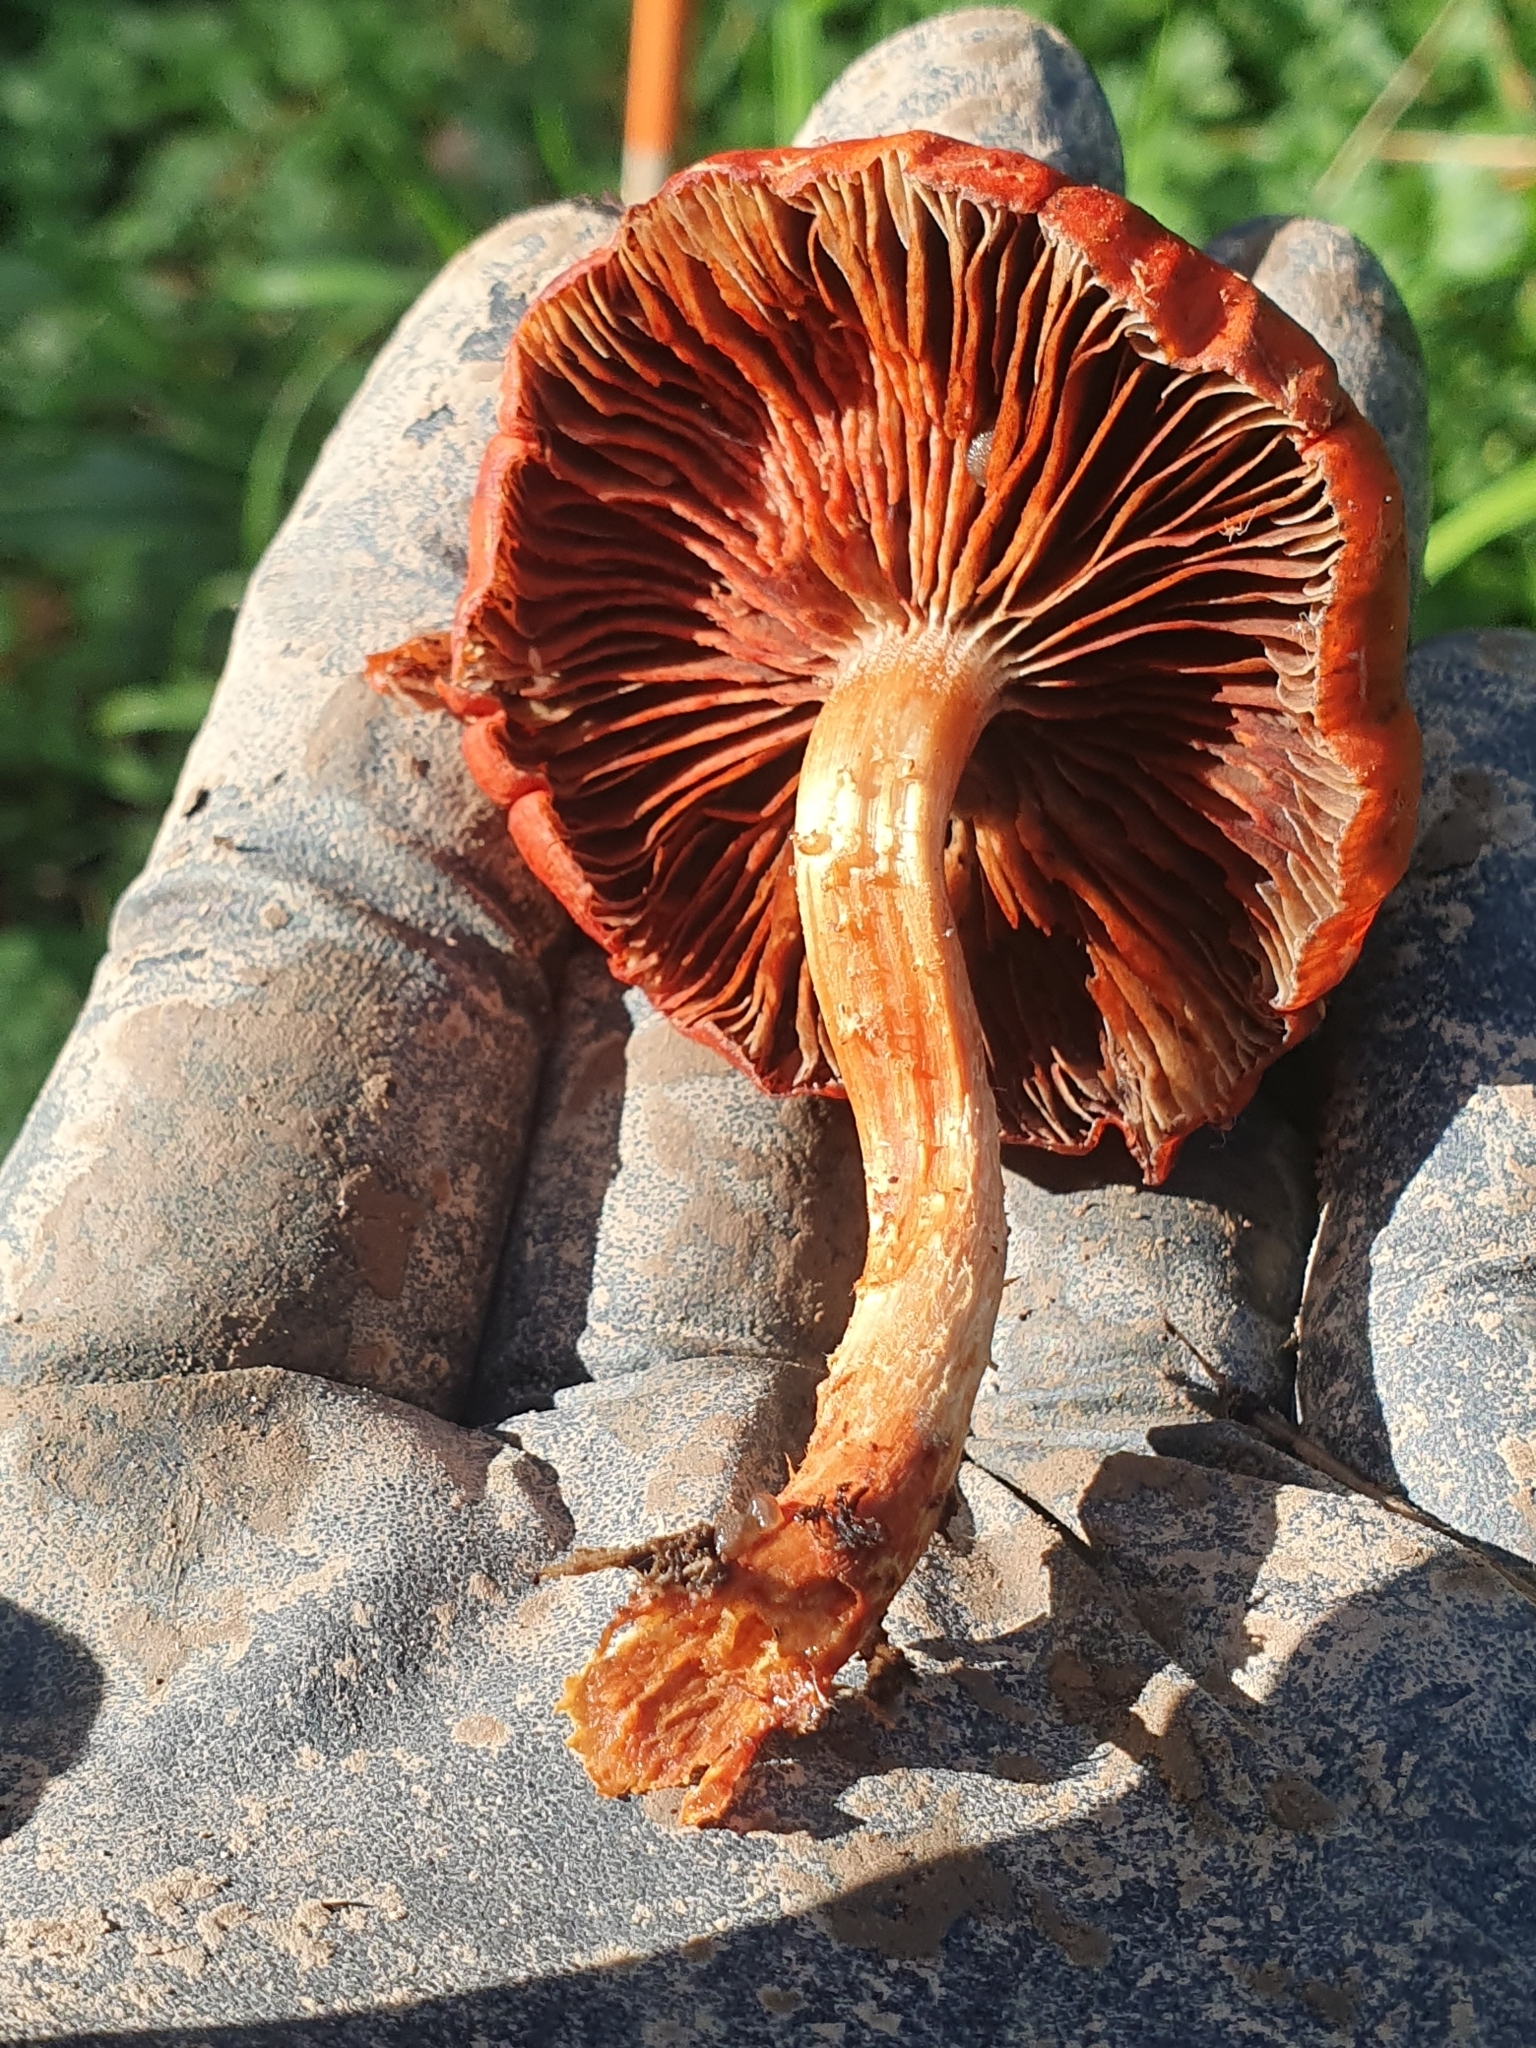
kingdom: Fungi
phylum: Basidiomycota
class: Agaricomycetes
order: Agaricales
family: Strophariaceae
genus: Leratiomyces
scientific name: Leratiomyces ceres
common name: Redlead roundhead
